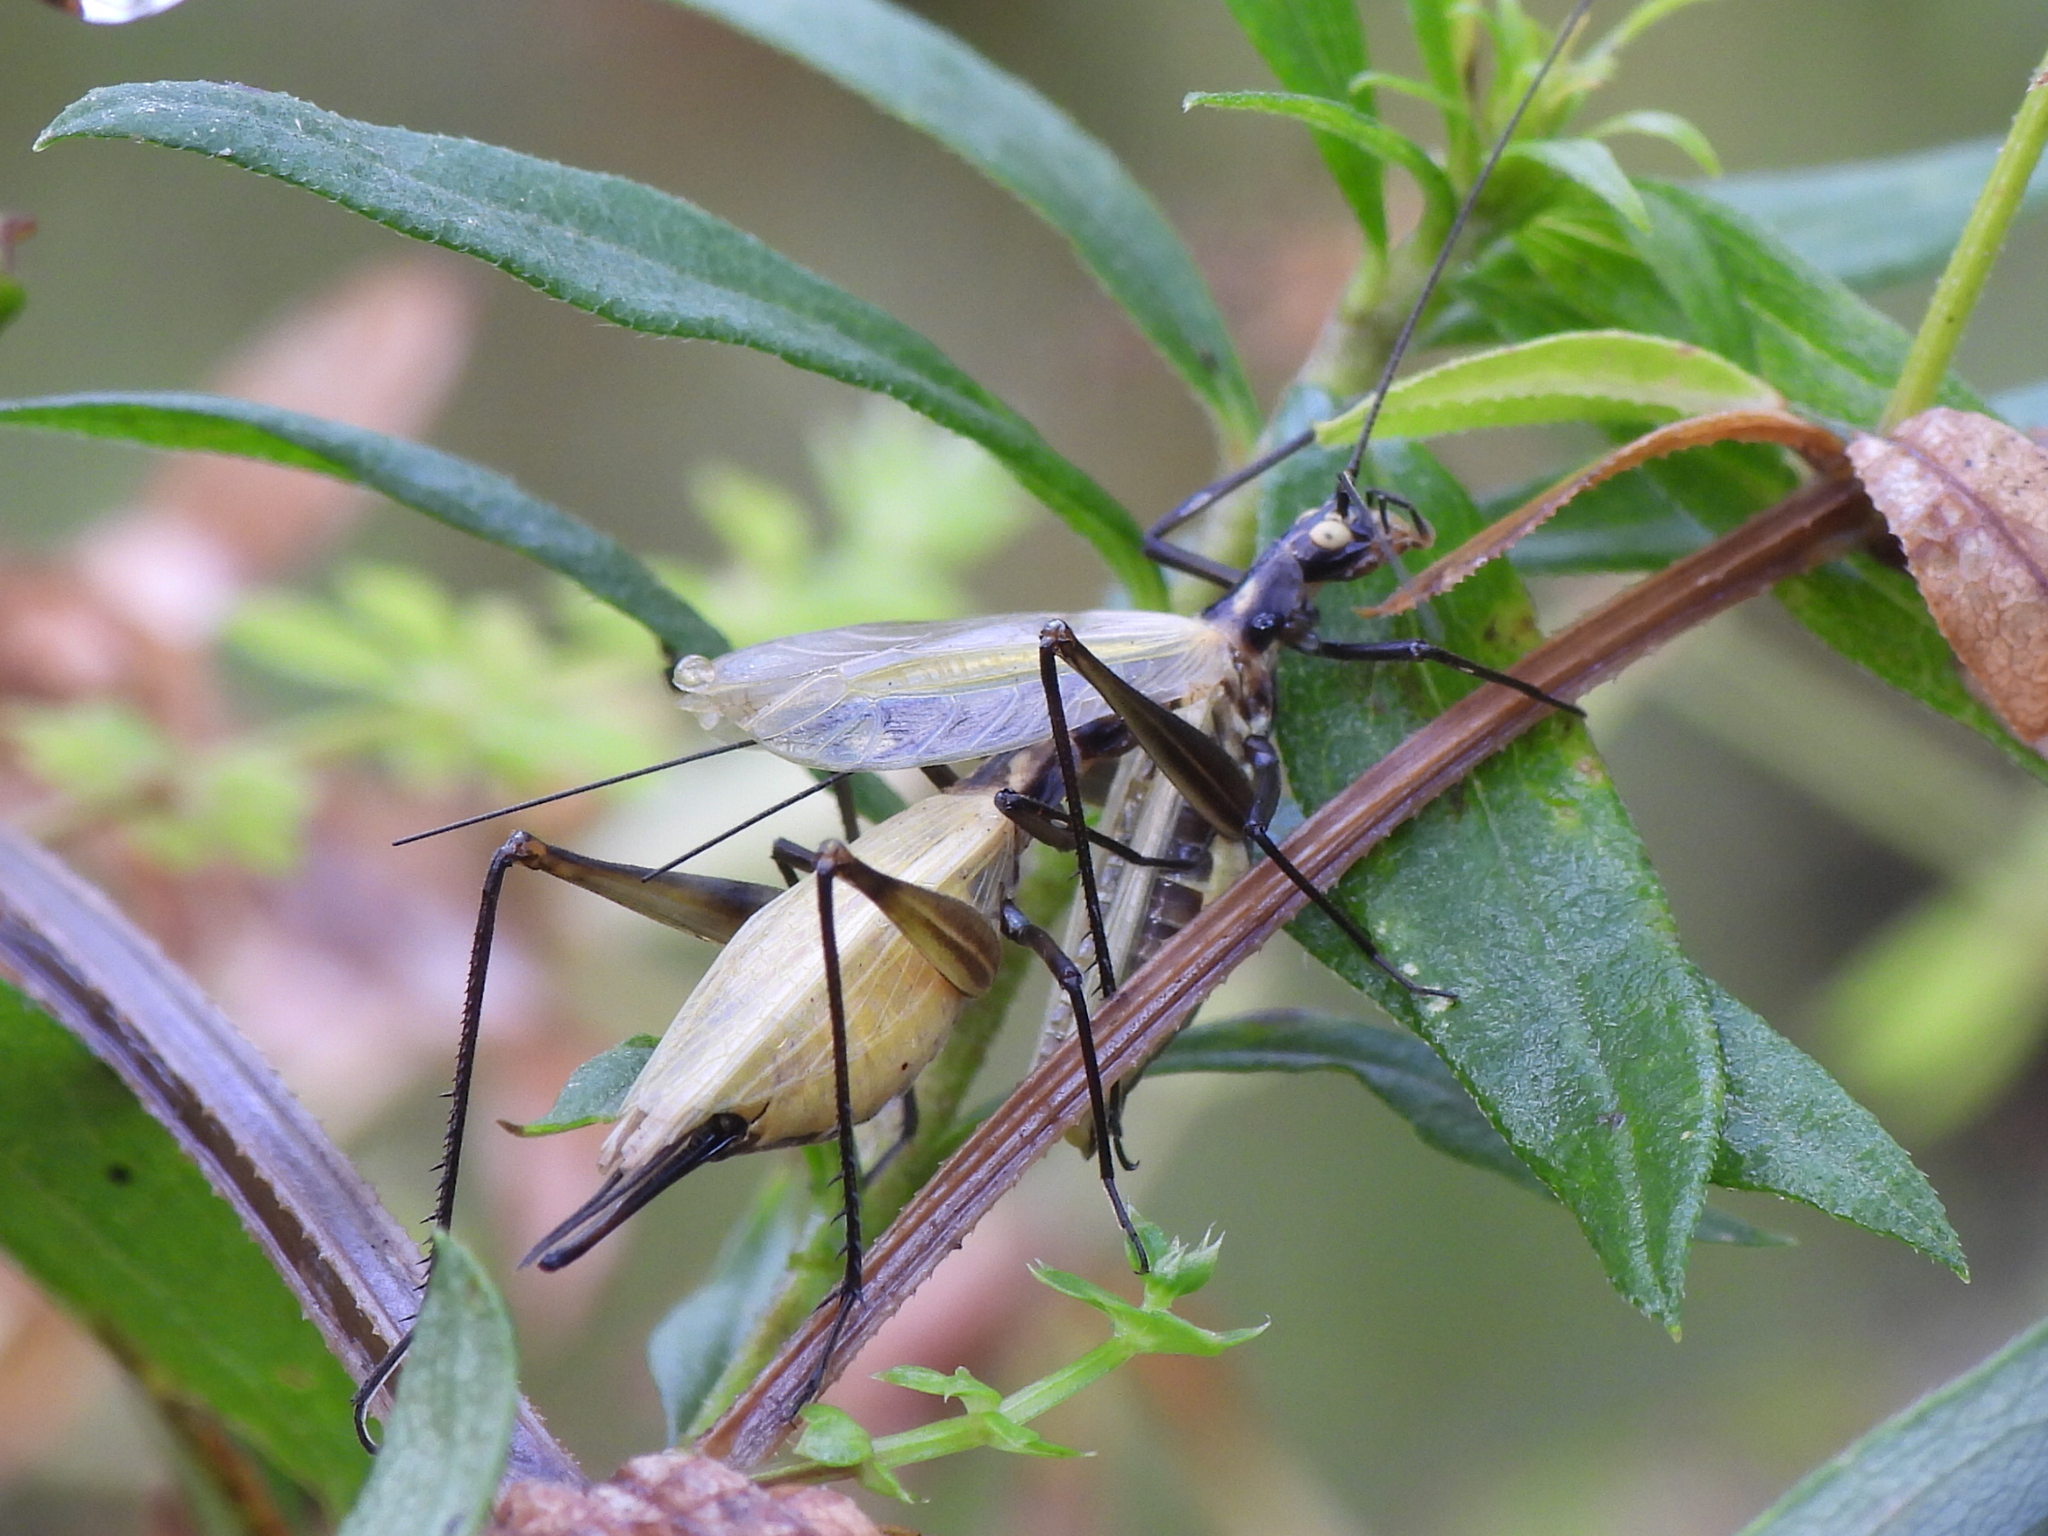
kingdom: Animalia
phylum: Arthropoda
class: Insecta
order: Orthoptera
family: Gryllidae
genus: Oecanthus
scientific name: Oecanthus nigricornis
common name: Black-horned tree cricket
